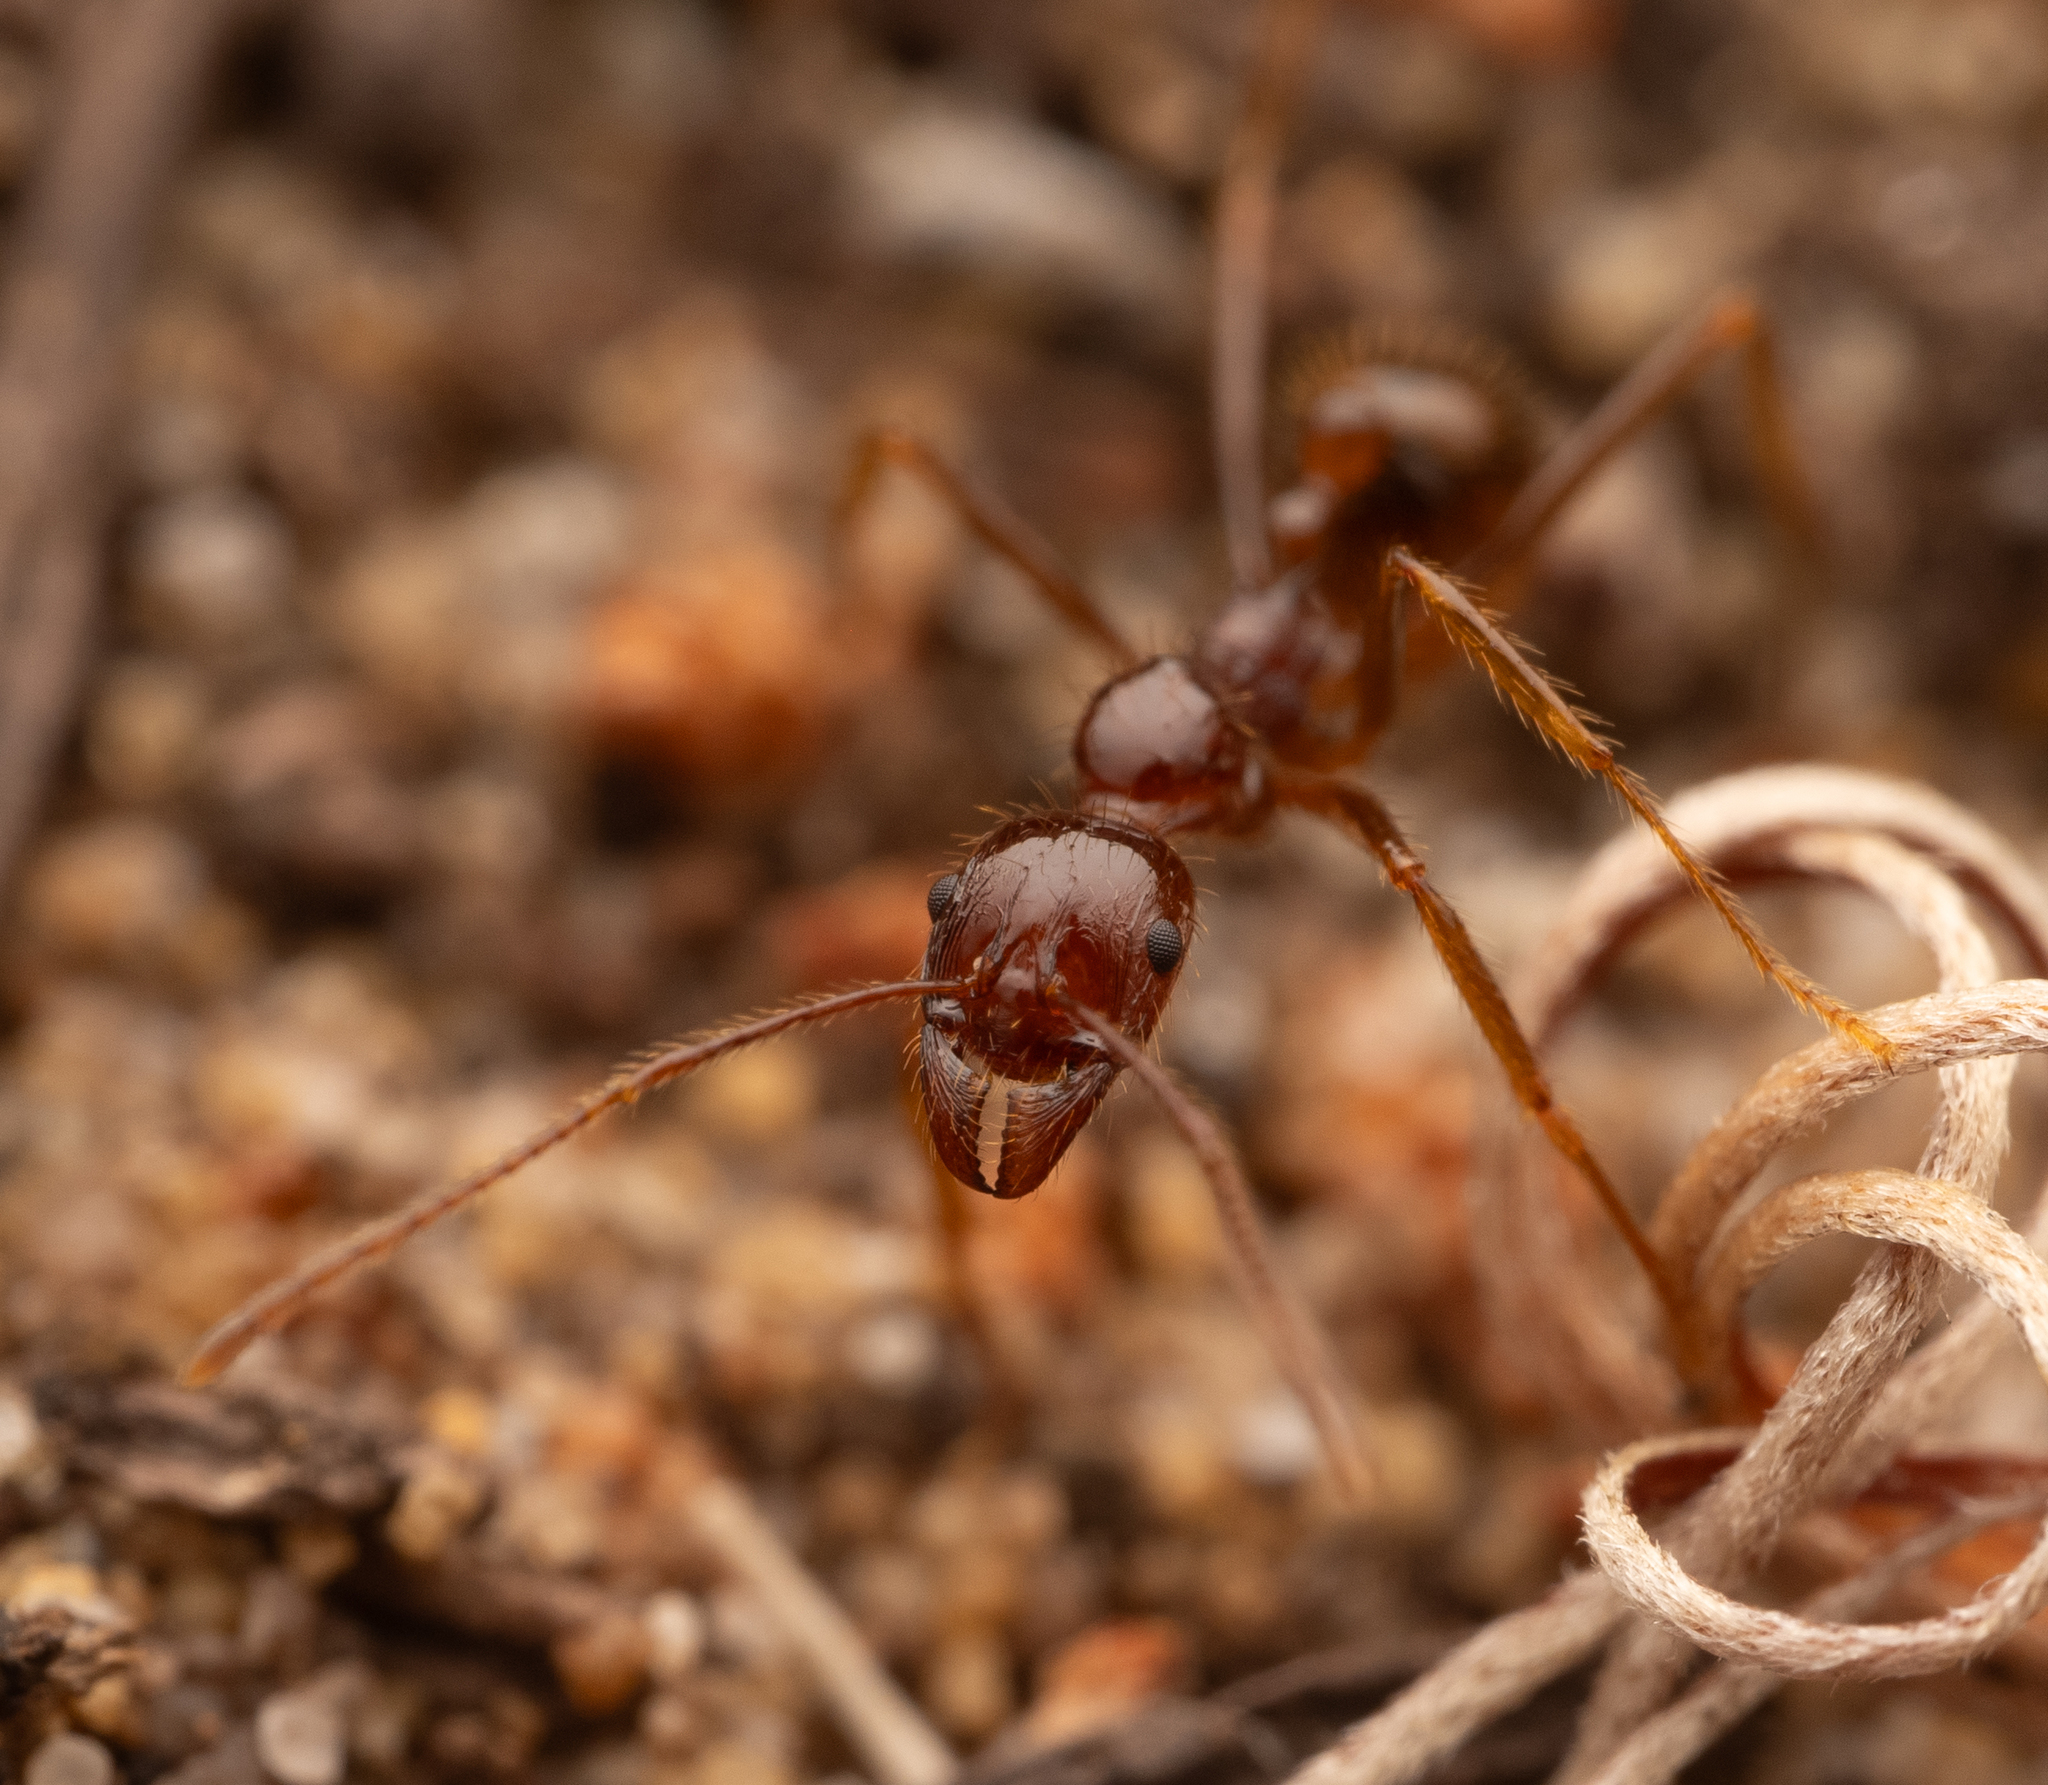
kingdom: Animalia
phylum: Arthropoda
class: Insecta
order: Hymenoptera
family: Formicidae
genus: Aphaenogaster
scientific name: Aphaenogaster longiceps
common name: Funnel ant
